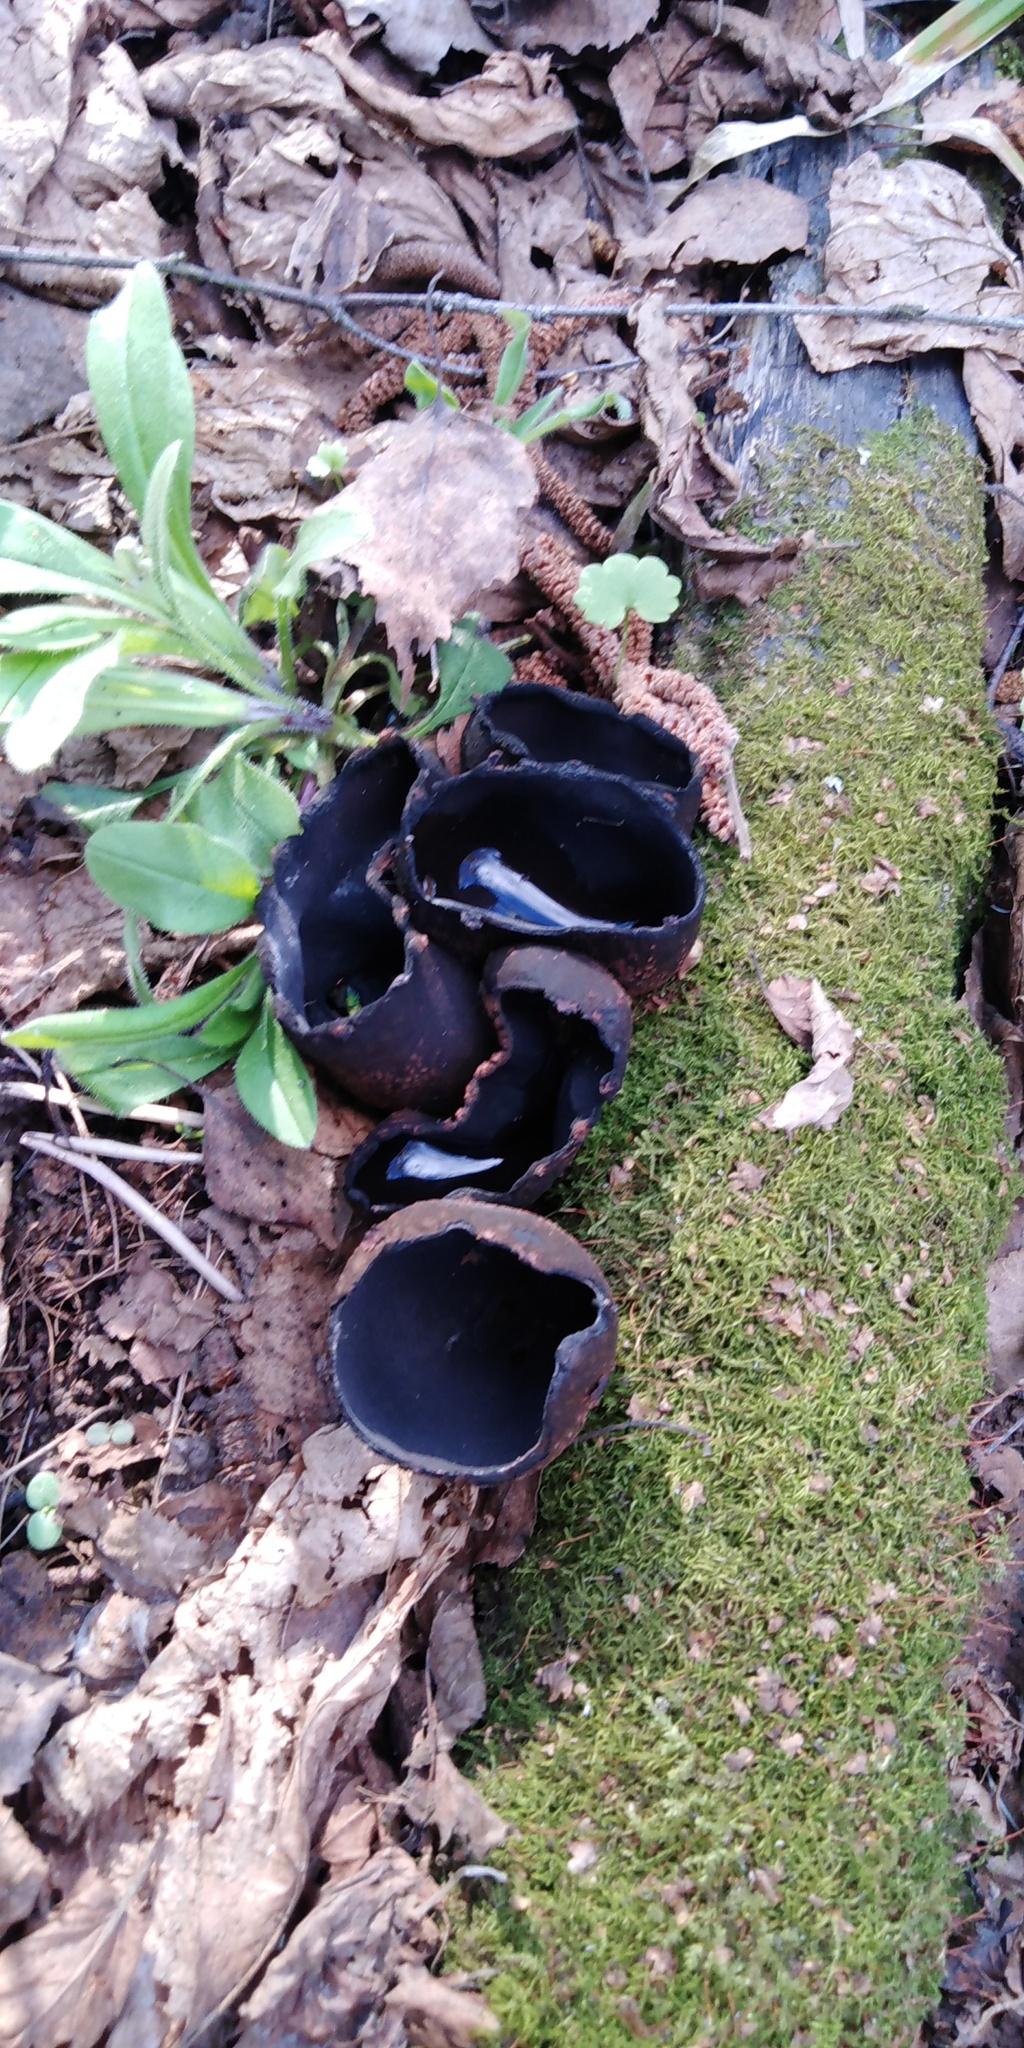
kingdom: Fungi
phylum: Ascomycota
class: Pezizomycetes
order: Pezizales
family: Sarcosomataceae
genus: Urnula
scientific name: Urnula craterium
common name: Devil's urn
